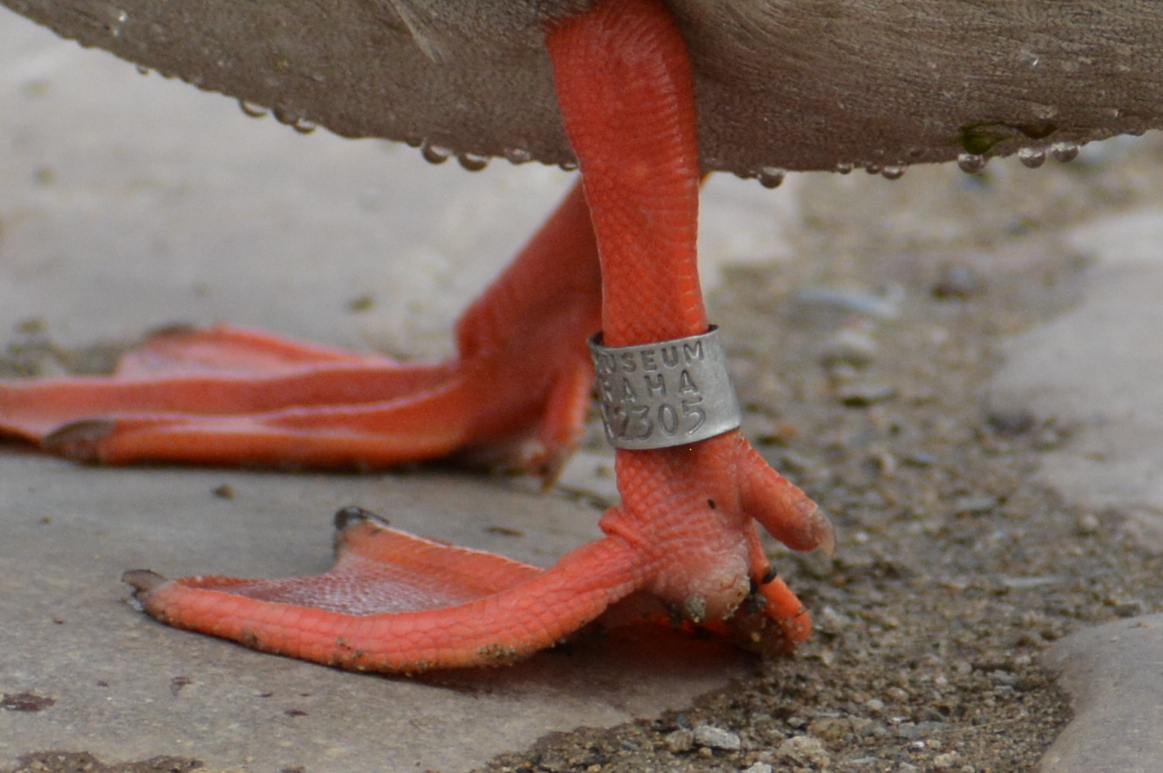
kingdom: Animalia
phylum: Chordata
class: Aves
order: Anseriformes
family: Anatidae
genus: Anas
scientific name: Anas platyrhynchos
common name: Mallard
